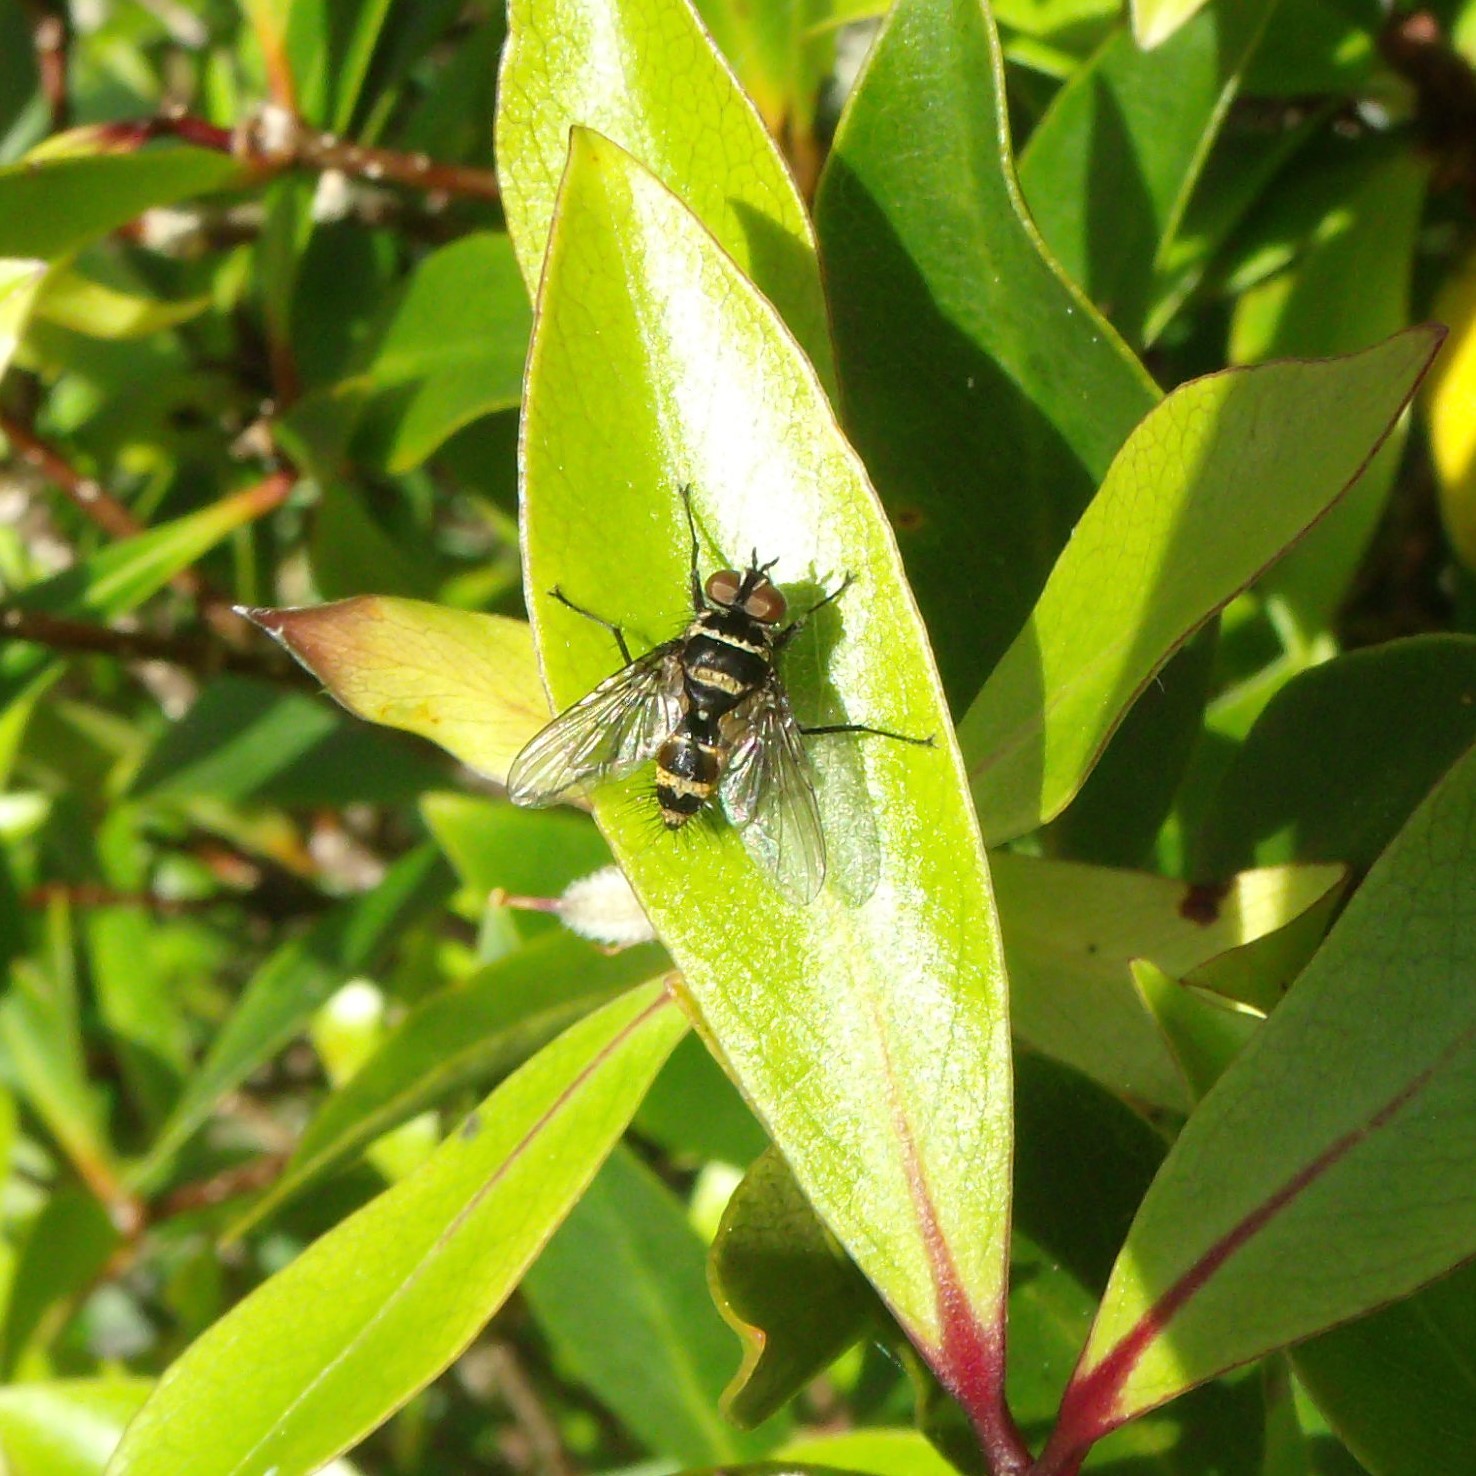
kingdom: Animalia
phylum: Arthropoda
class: Insecta
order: Diptera
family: Tachinidae
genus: Trigonospila
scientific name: Trigonospila brevifacies
